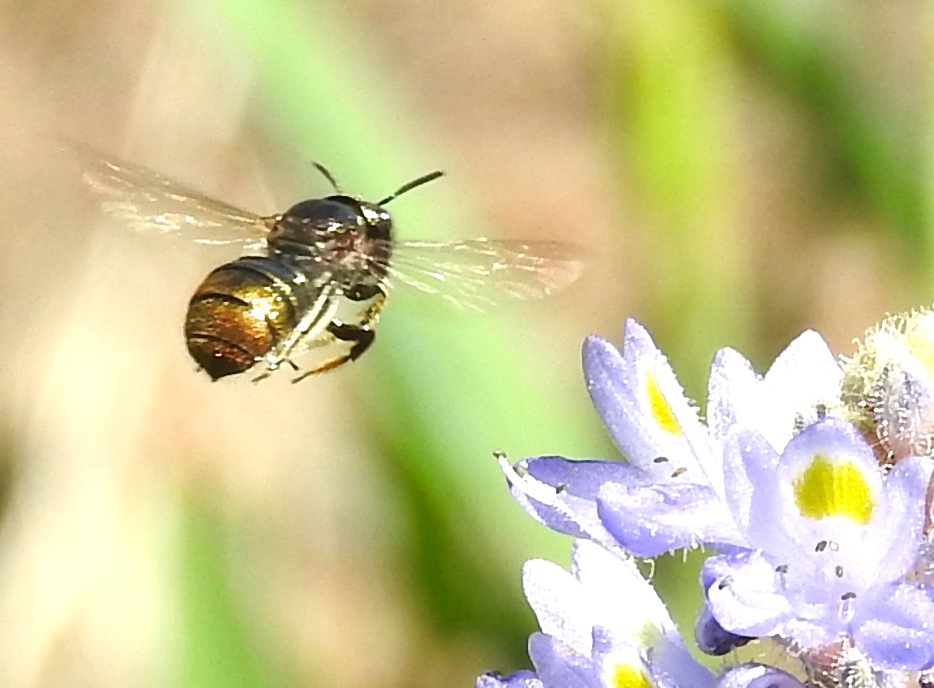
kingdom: Animalia
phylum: Arthropoda
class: Insecta
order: Hymenoptera
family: Apidae
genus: Ceratina
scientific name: Ceratina
